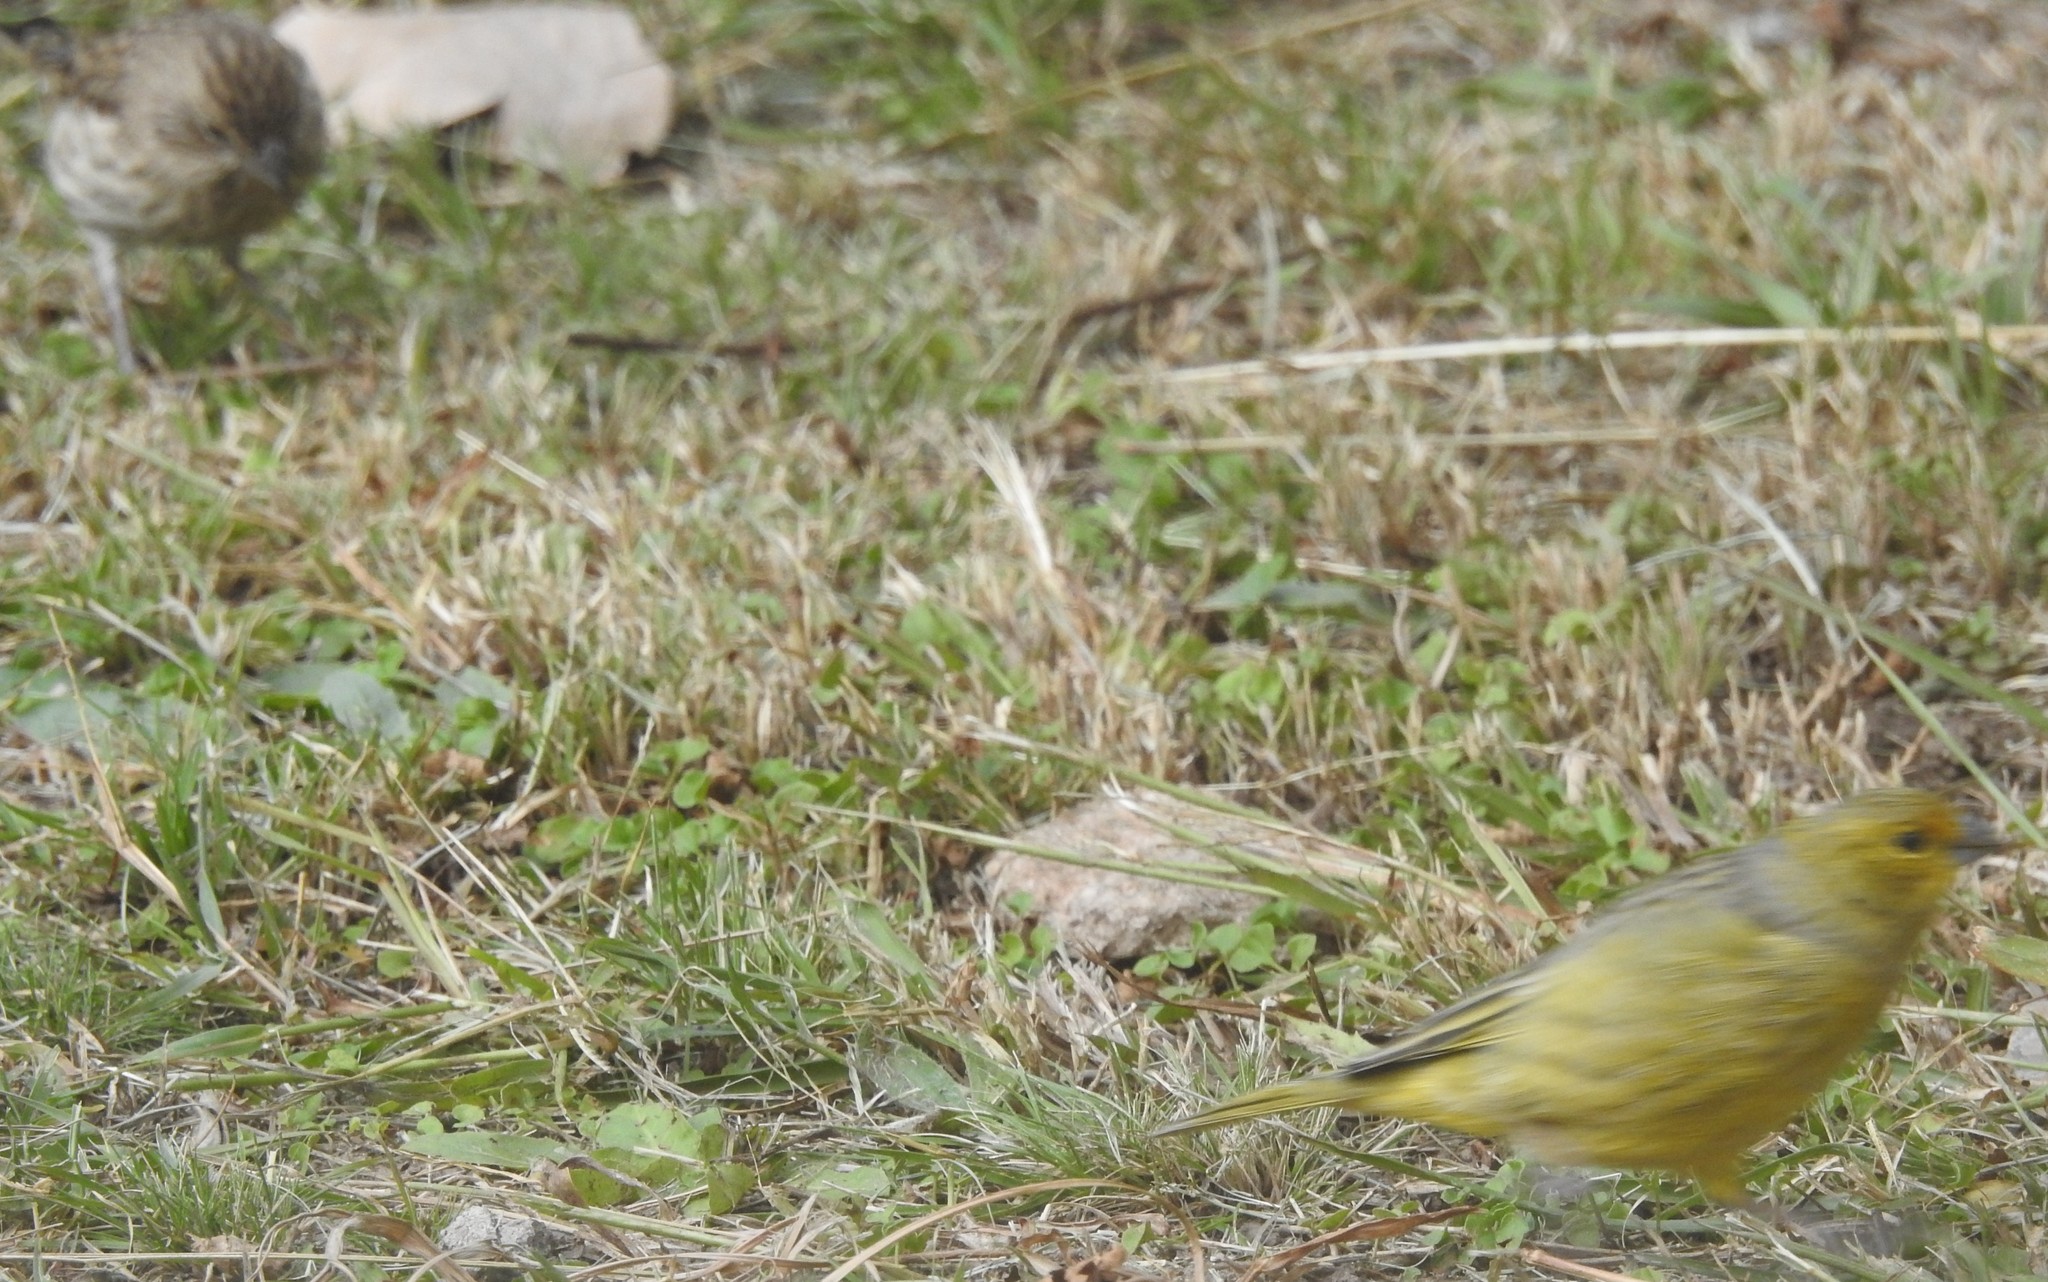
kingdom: Animalia
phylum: Chordata
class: Aves
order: Passeriformes
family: Thraupidae
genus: Sicalis
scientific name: Sicalis luteola
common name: Grassland yellow-finch
